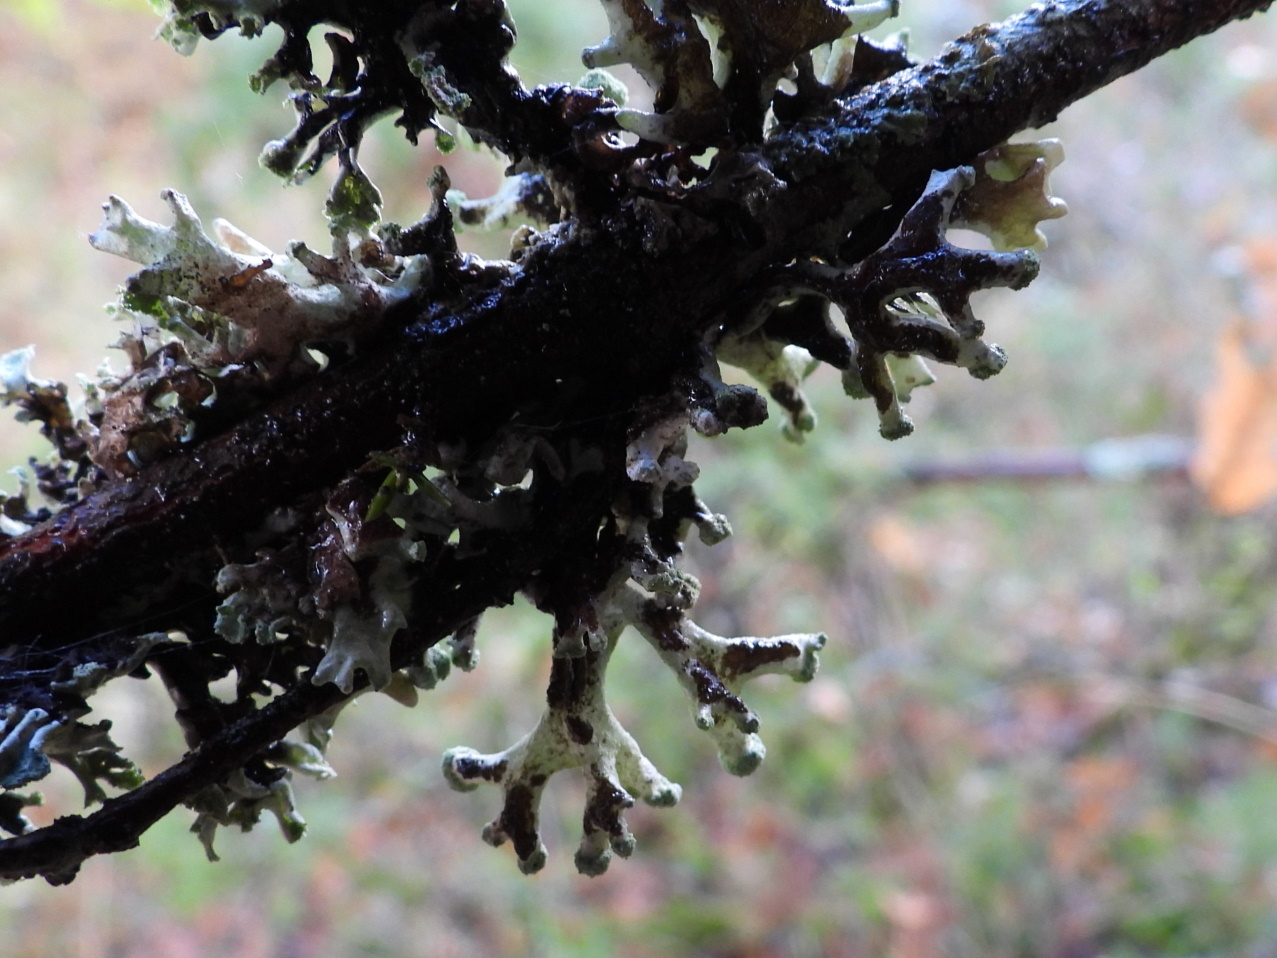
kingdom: Fungi
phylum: Ascomycota
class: Lecanoromycetes
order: Lecanorales
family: Parmeliaceae
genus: Hypogymnia
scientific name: Hypogymnia tubulosa
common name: Powder-headed tube lichen
